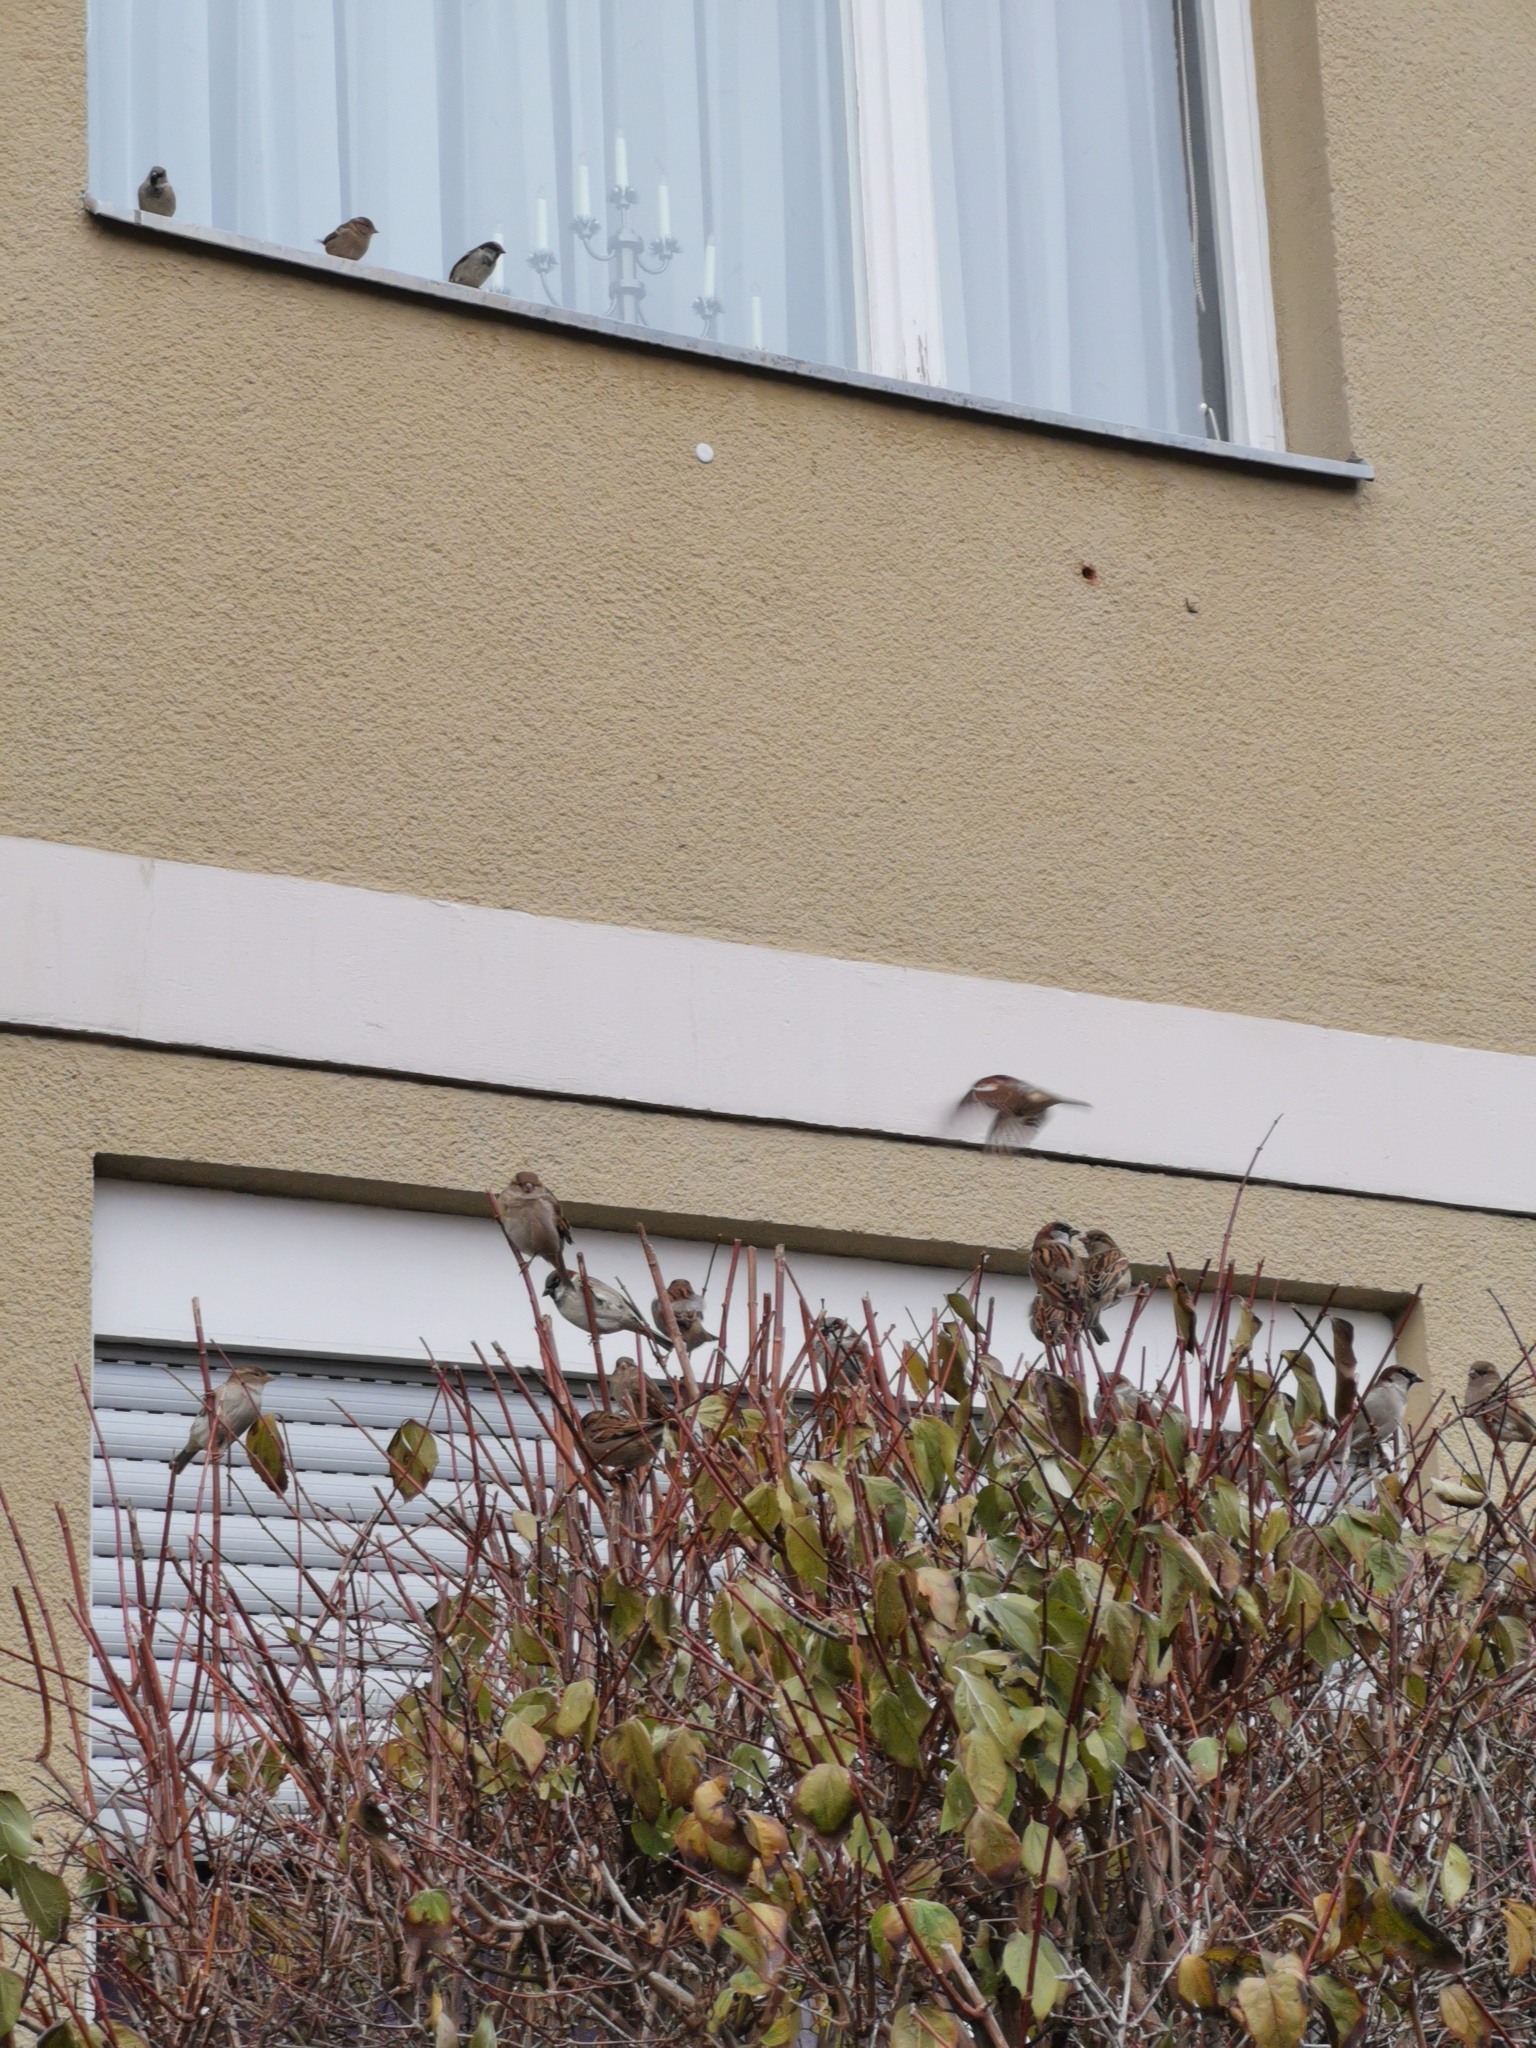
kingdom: Animalia
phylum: Chordata
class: Aves
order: Passeriformes
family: Passeridae
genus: Passer
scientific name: Passer domesticus
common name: House sparrow
